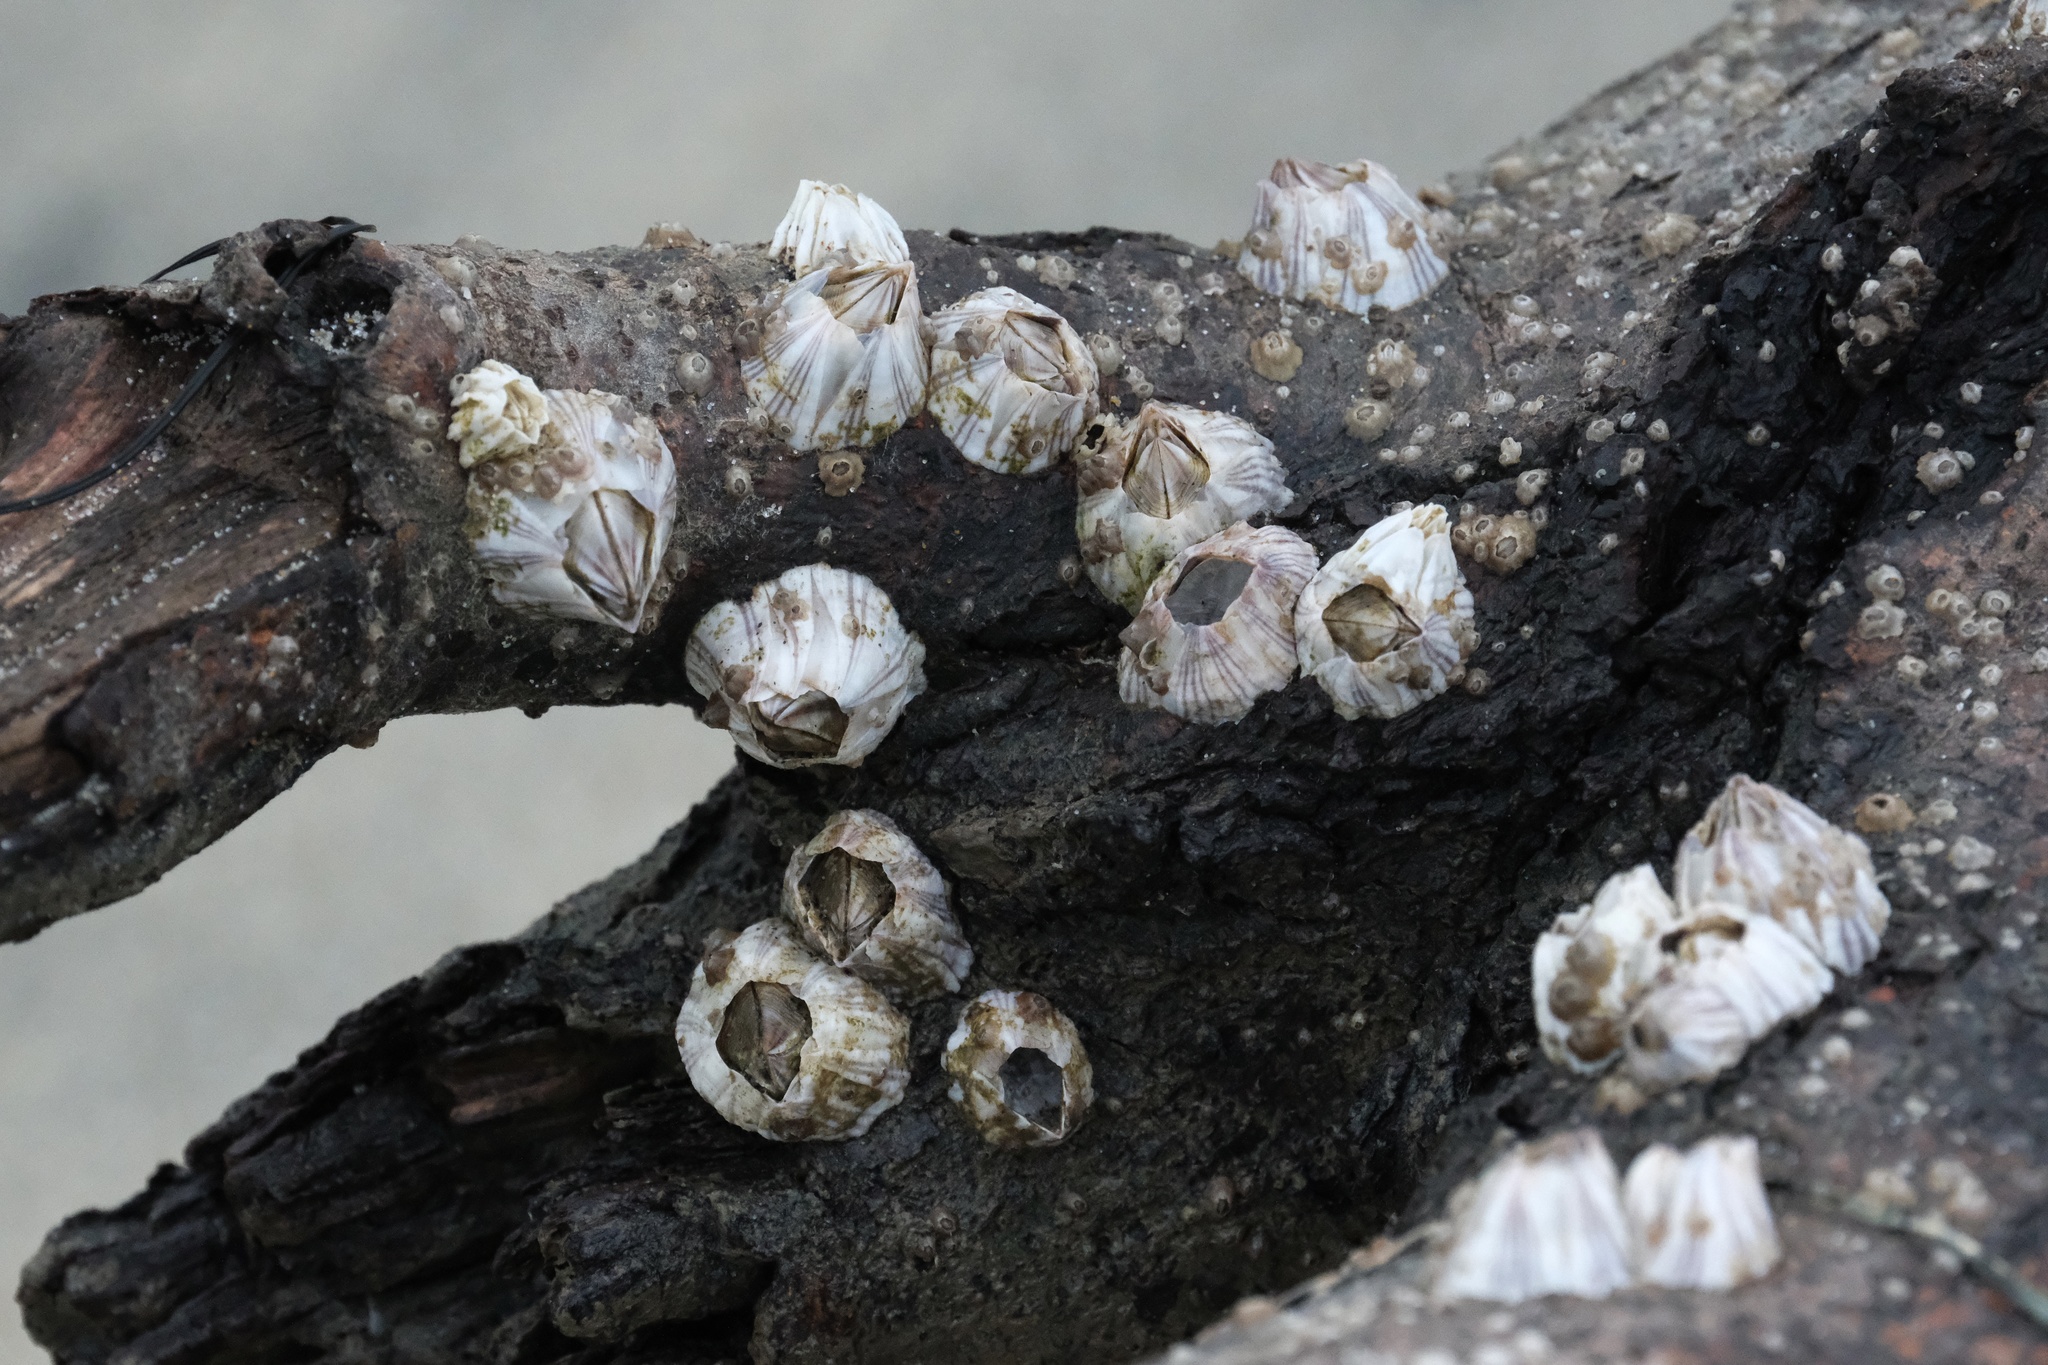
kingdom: Animalia
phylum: Arthropoda
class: Maxillopoda
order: Sessilia
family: Balanidae
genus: Amphibalanus
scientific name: Amphibalanus amphitrite
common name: Striped acorn barnacle
